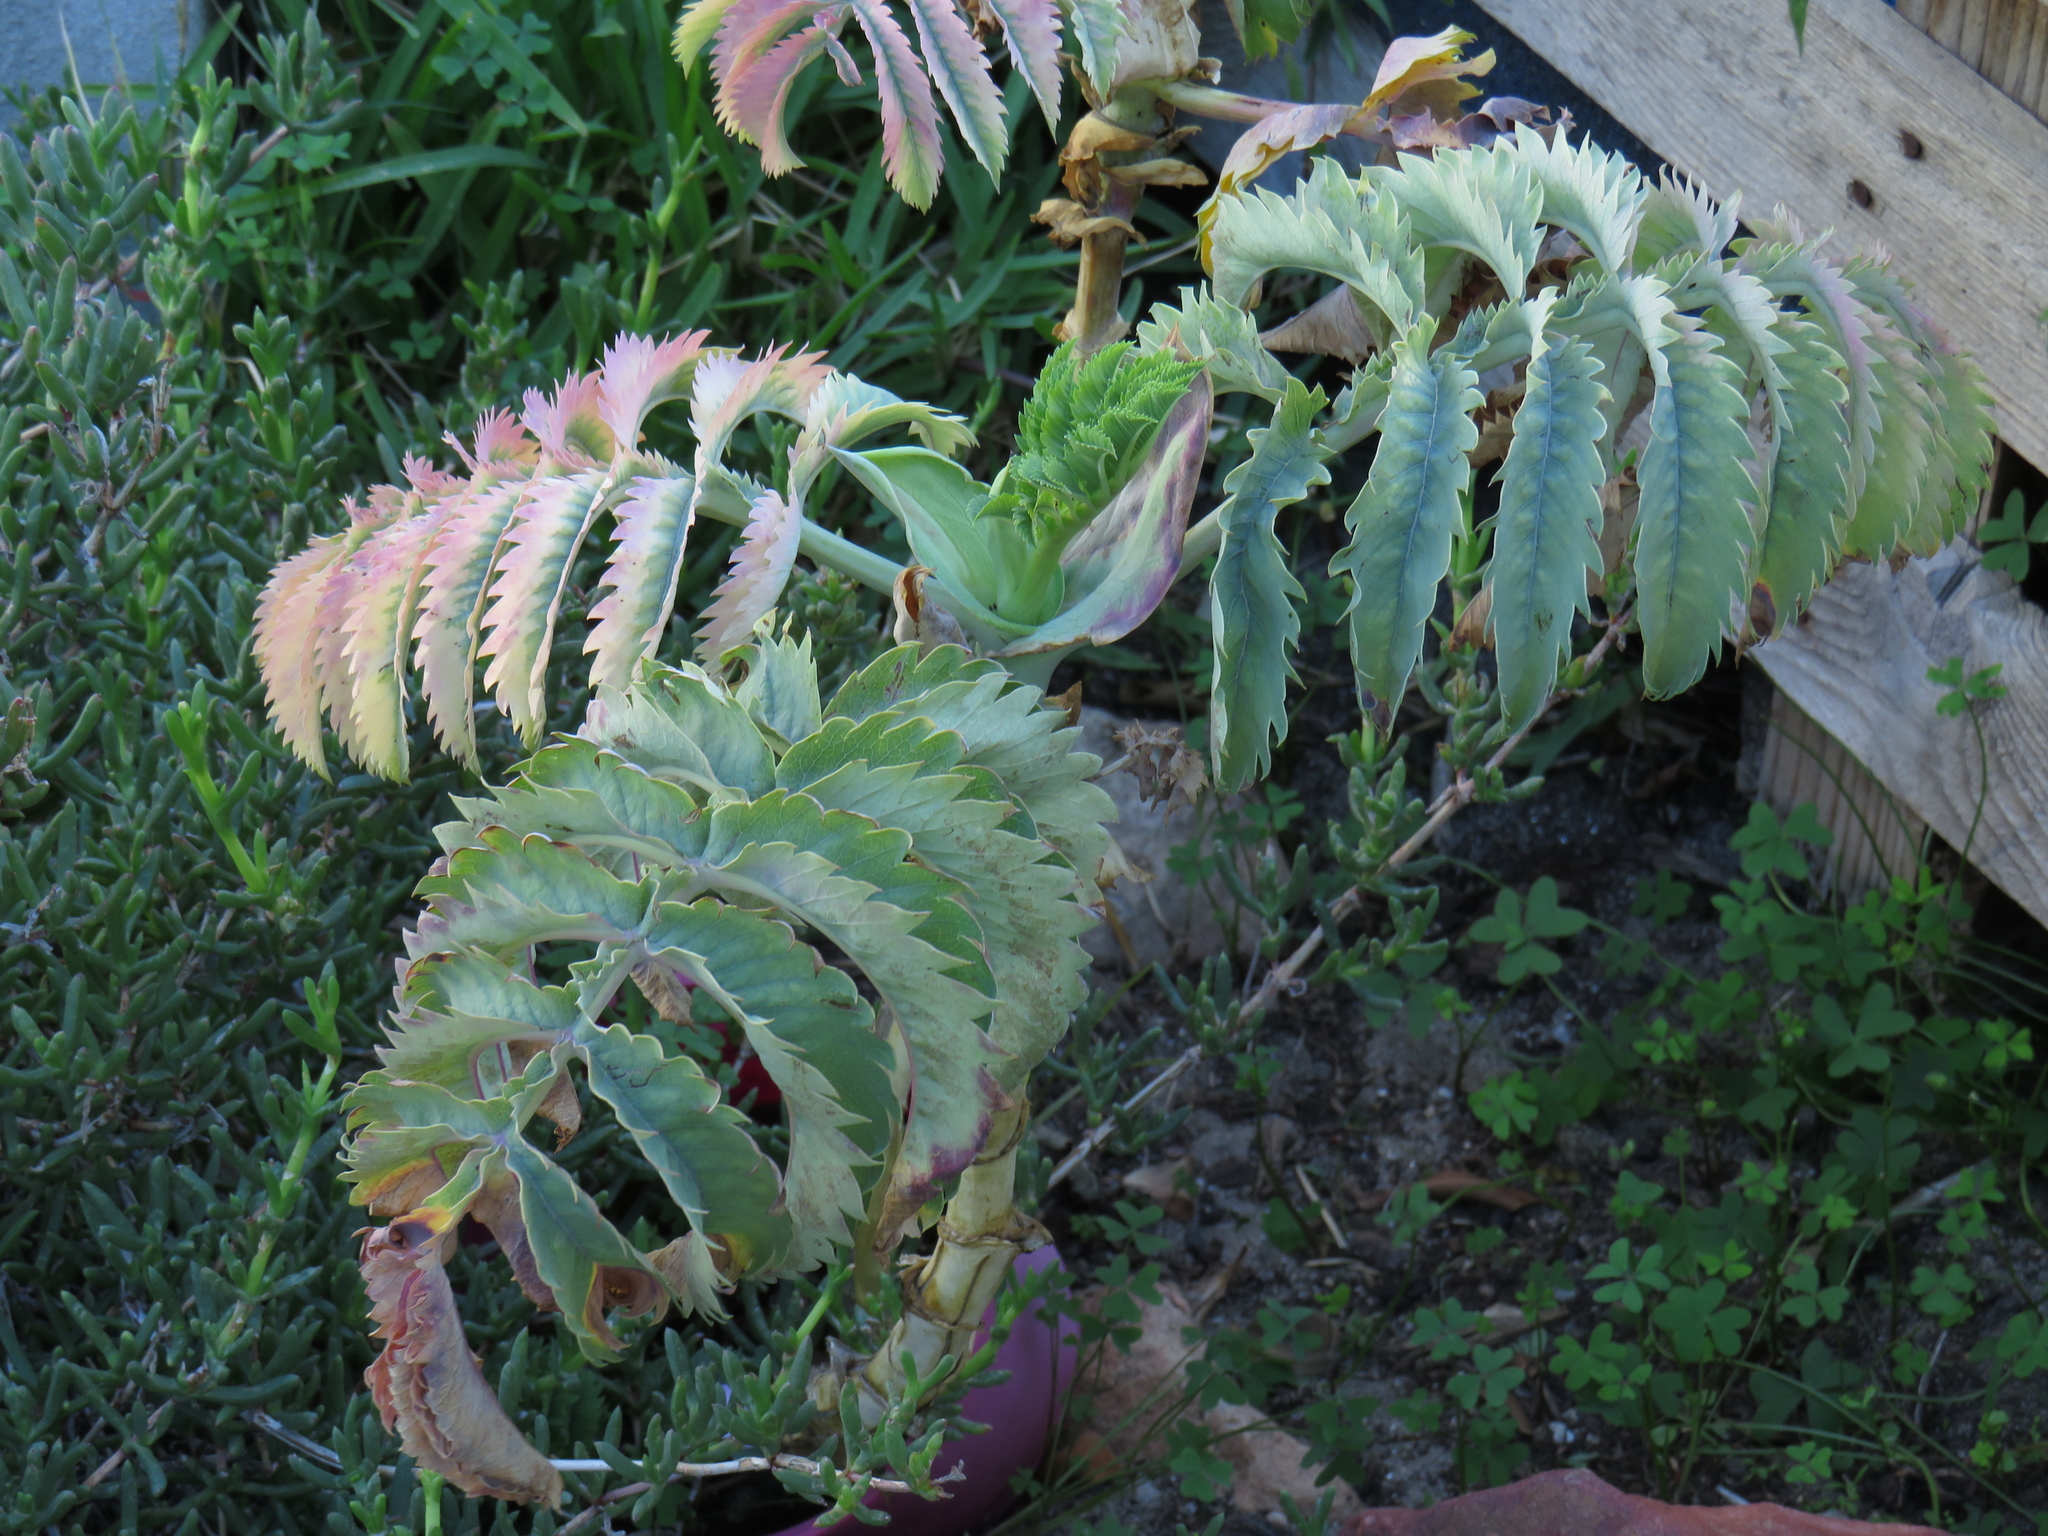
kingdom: Plantae
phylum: Tracheophyta
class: Magnoliopsida
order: Geraniales
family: Melianthaceae
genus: Melianthus
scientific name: Melianthus major
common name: Honey-flower
